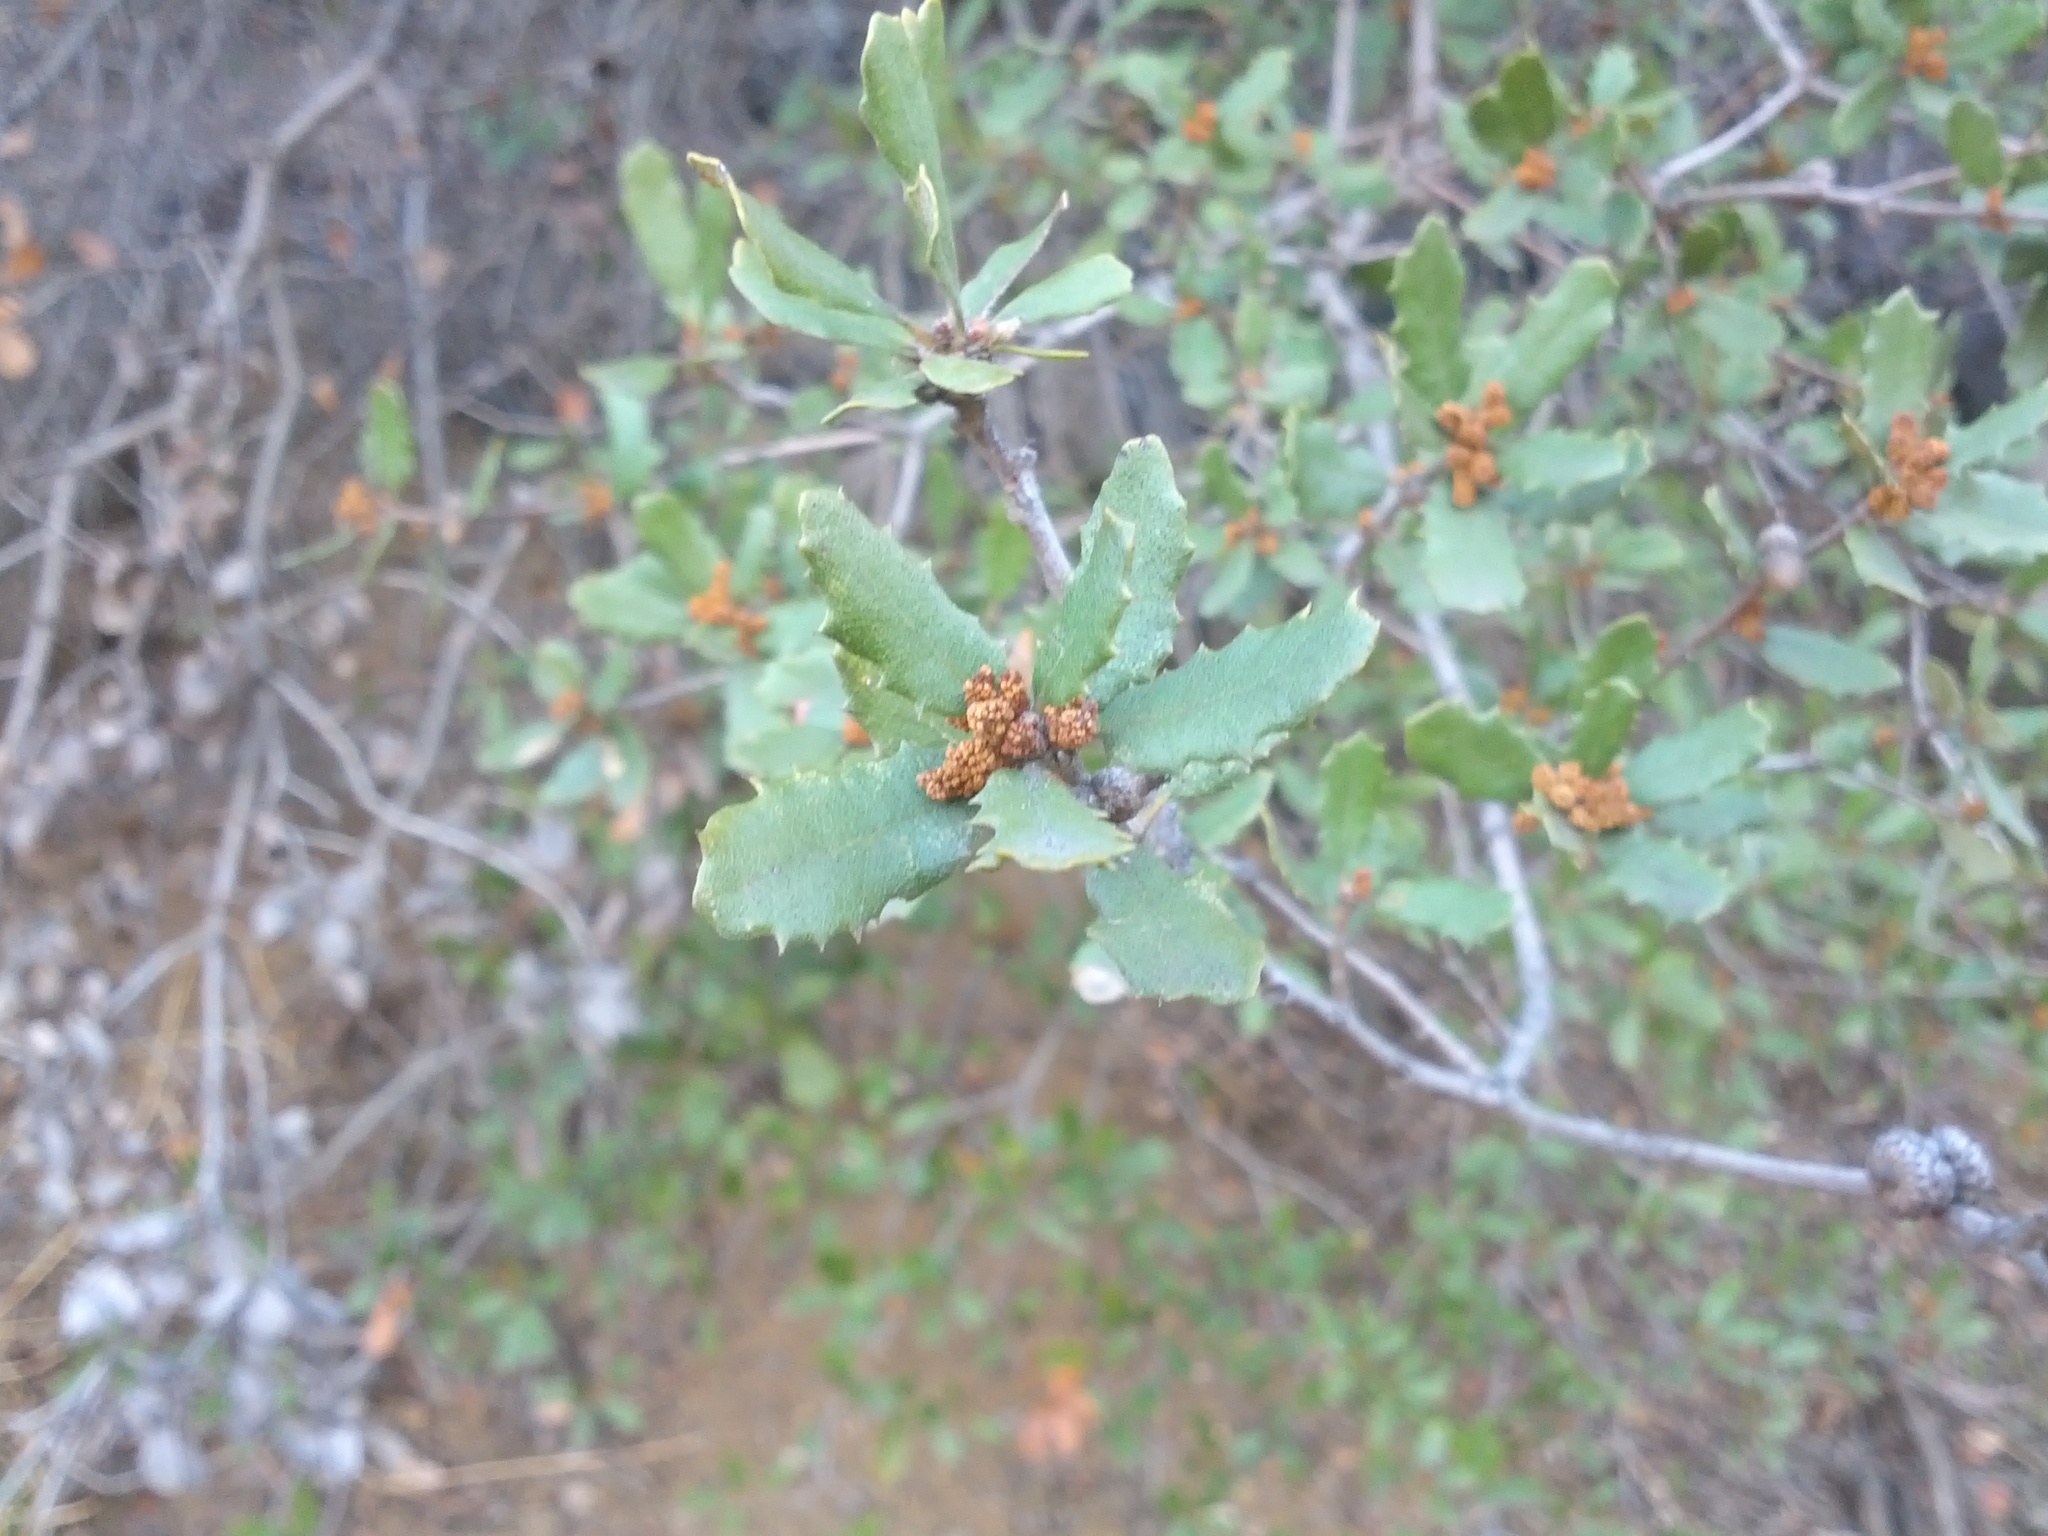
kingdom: Plantae
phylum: Tracheophyta
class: Magnoliopsida
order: Fagales
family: Fagaceae
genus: Quercus
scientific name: Quercus berberidifolia
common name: California scrub oak
